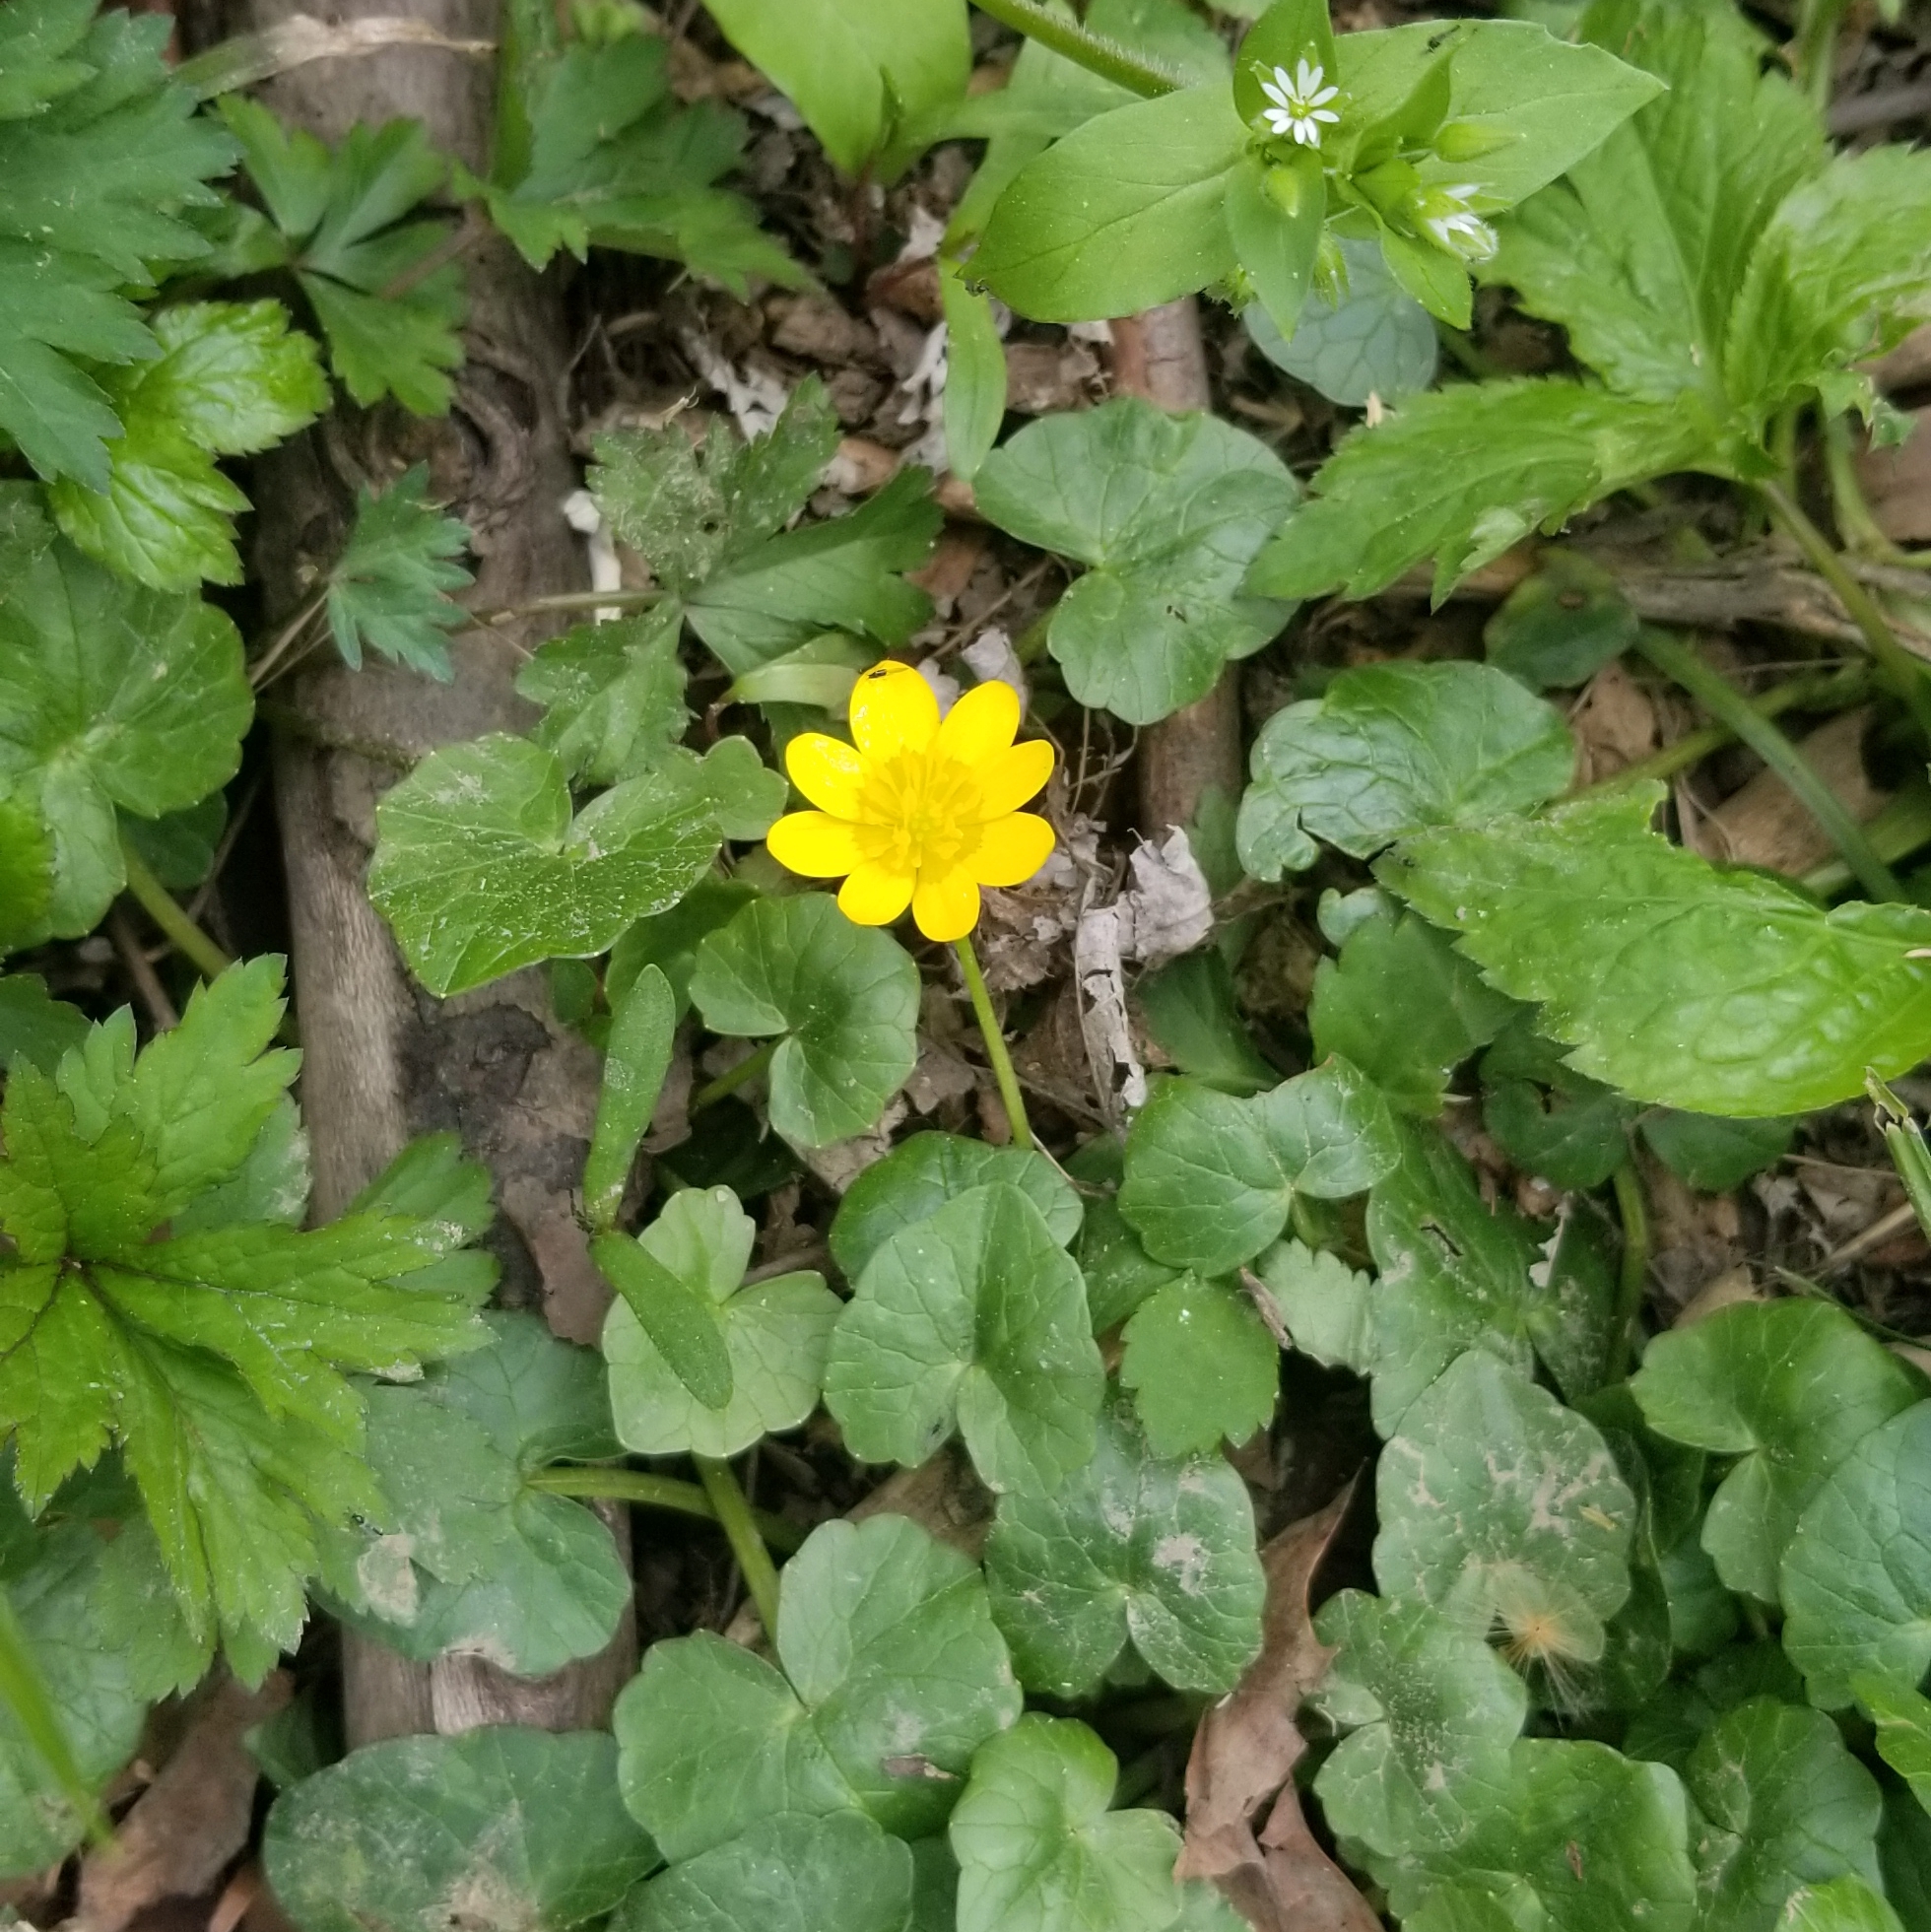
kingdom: Plantae
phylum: Tracheophyta
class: Magnoliopsida
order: Ranunculales
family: Ranunculaceae
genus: Ficaria
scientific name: Ficaria verna
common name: Lesser celandine
